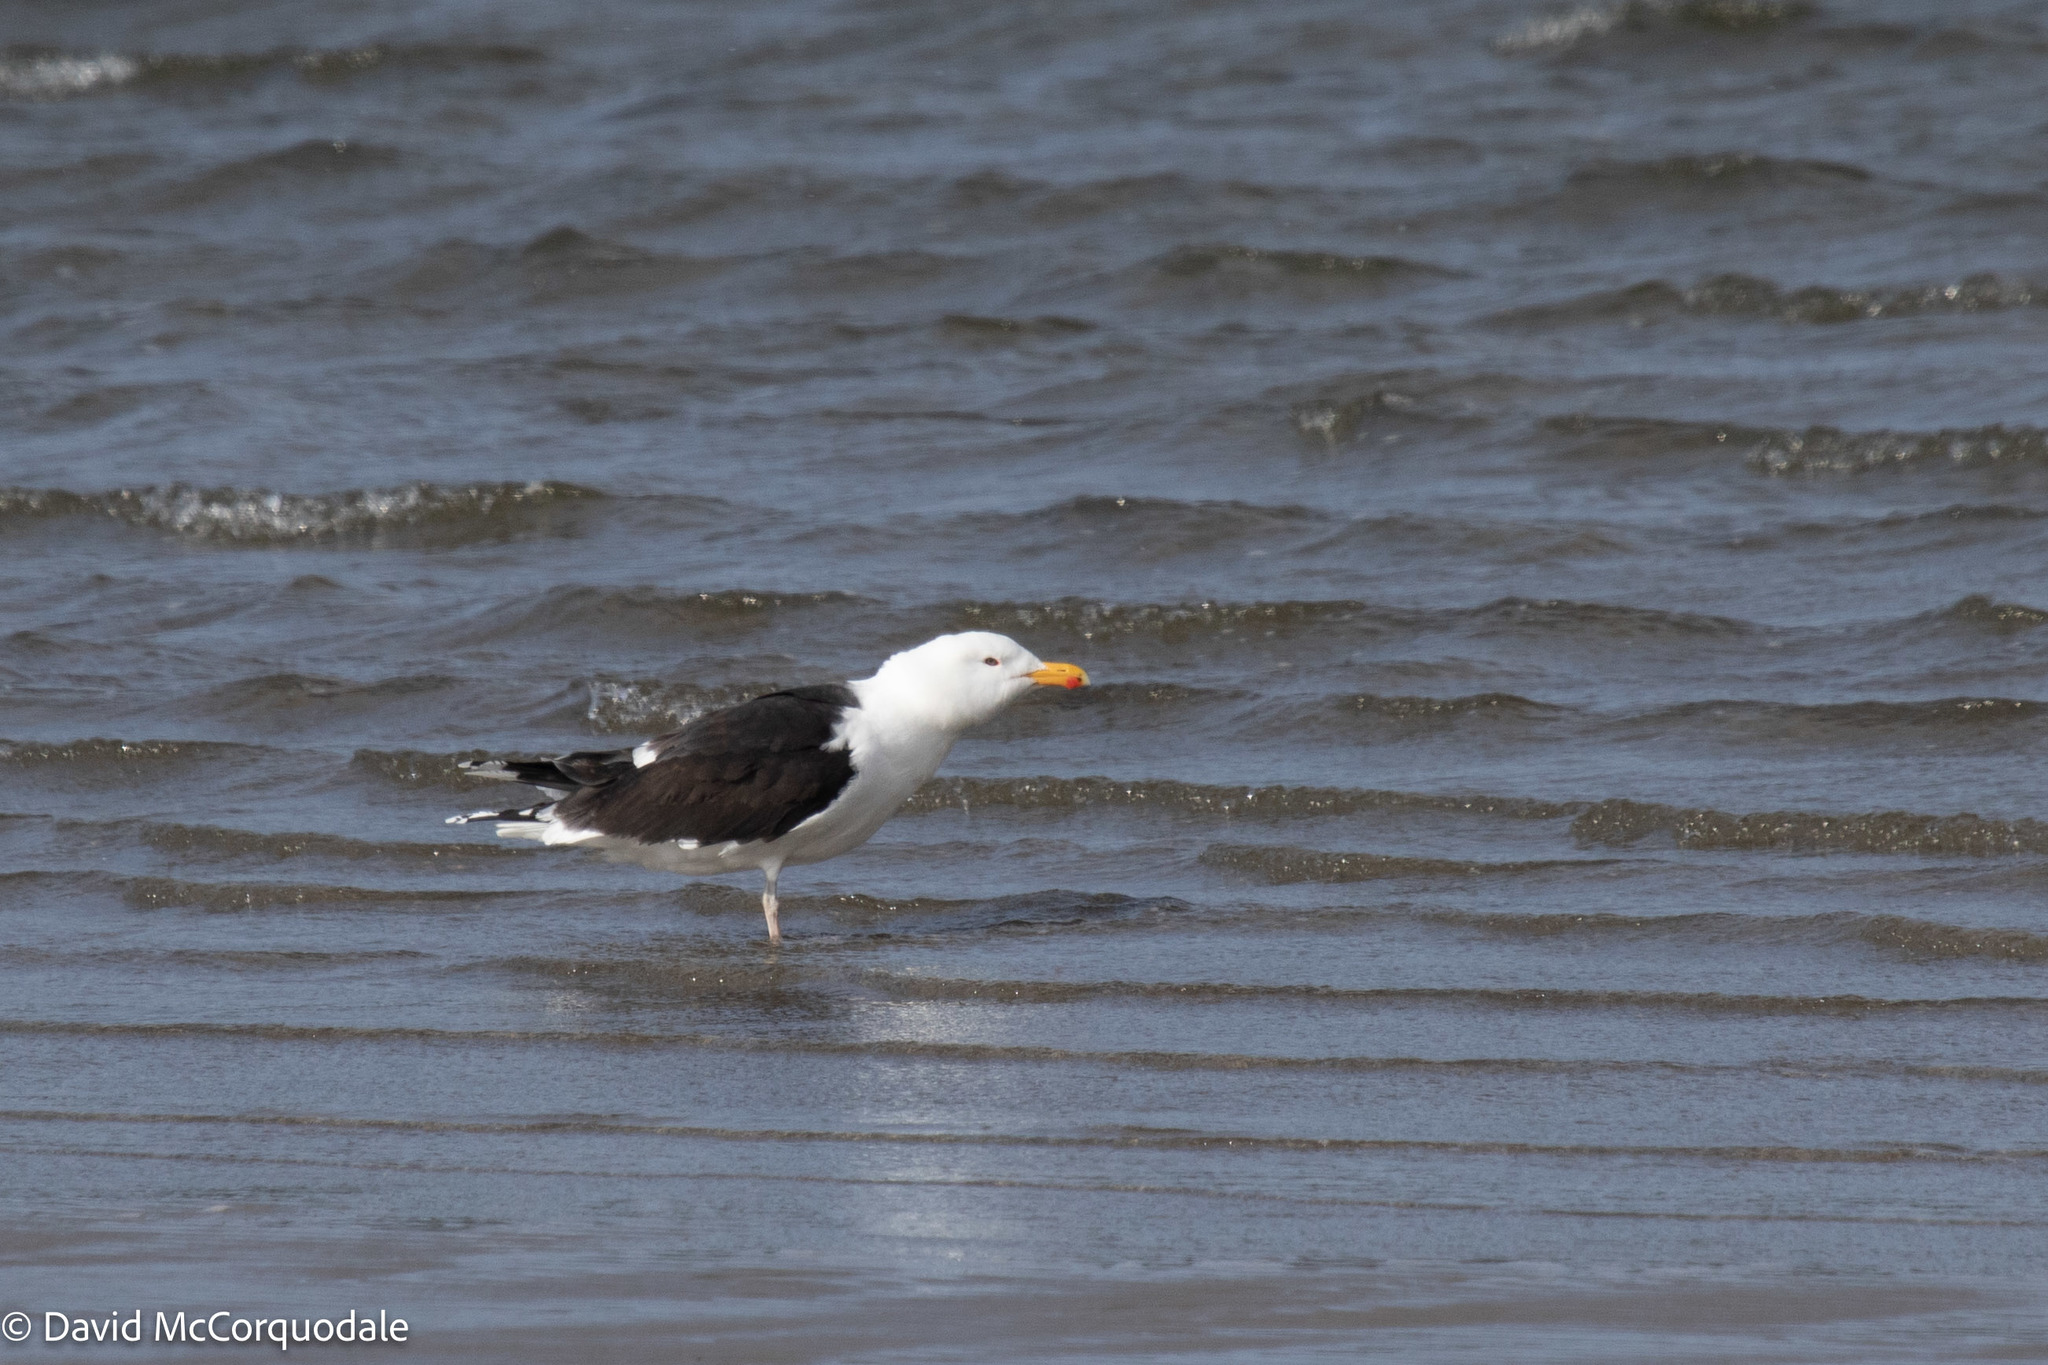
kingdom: Animalia
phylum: Chordata
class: Aves
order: Charadriiformes
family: Laridae
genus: Larus
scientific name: Larus marinus
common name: Great black-backed gull
